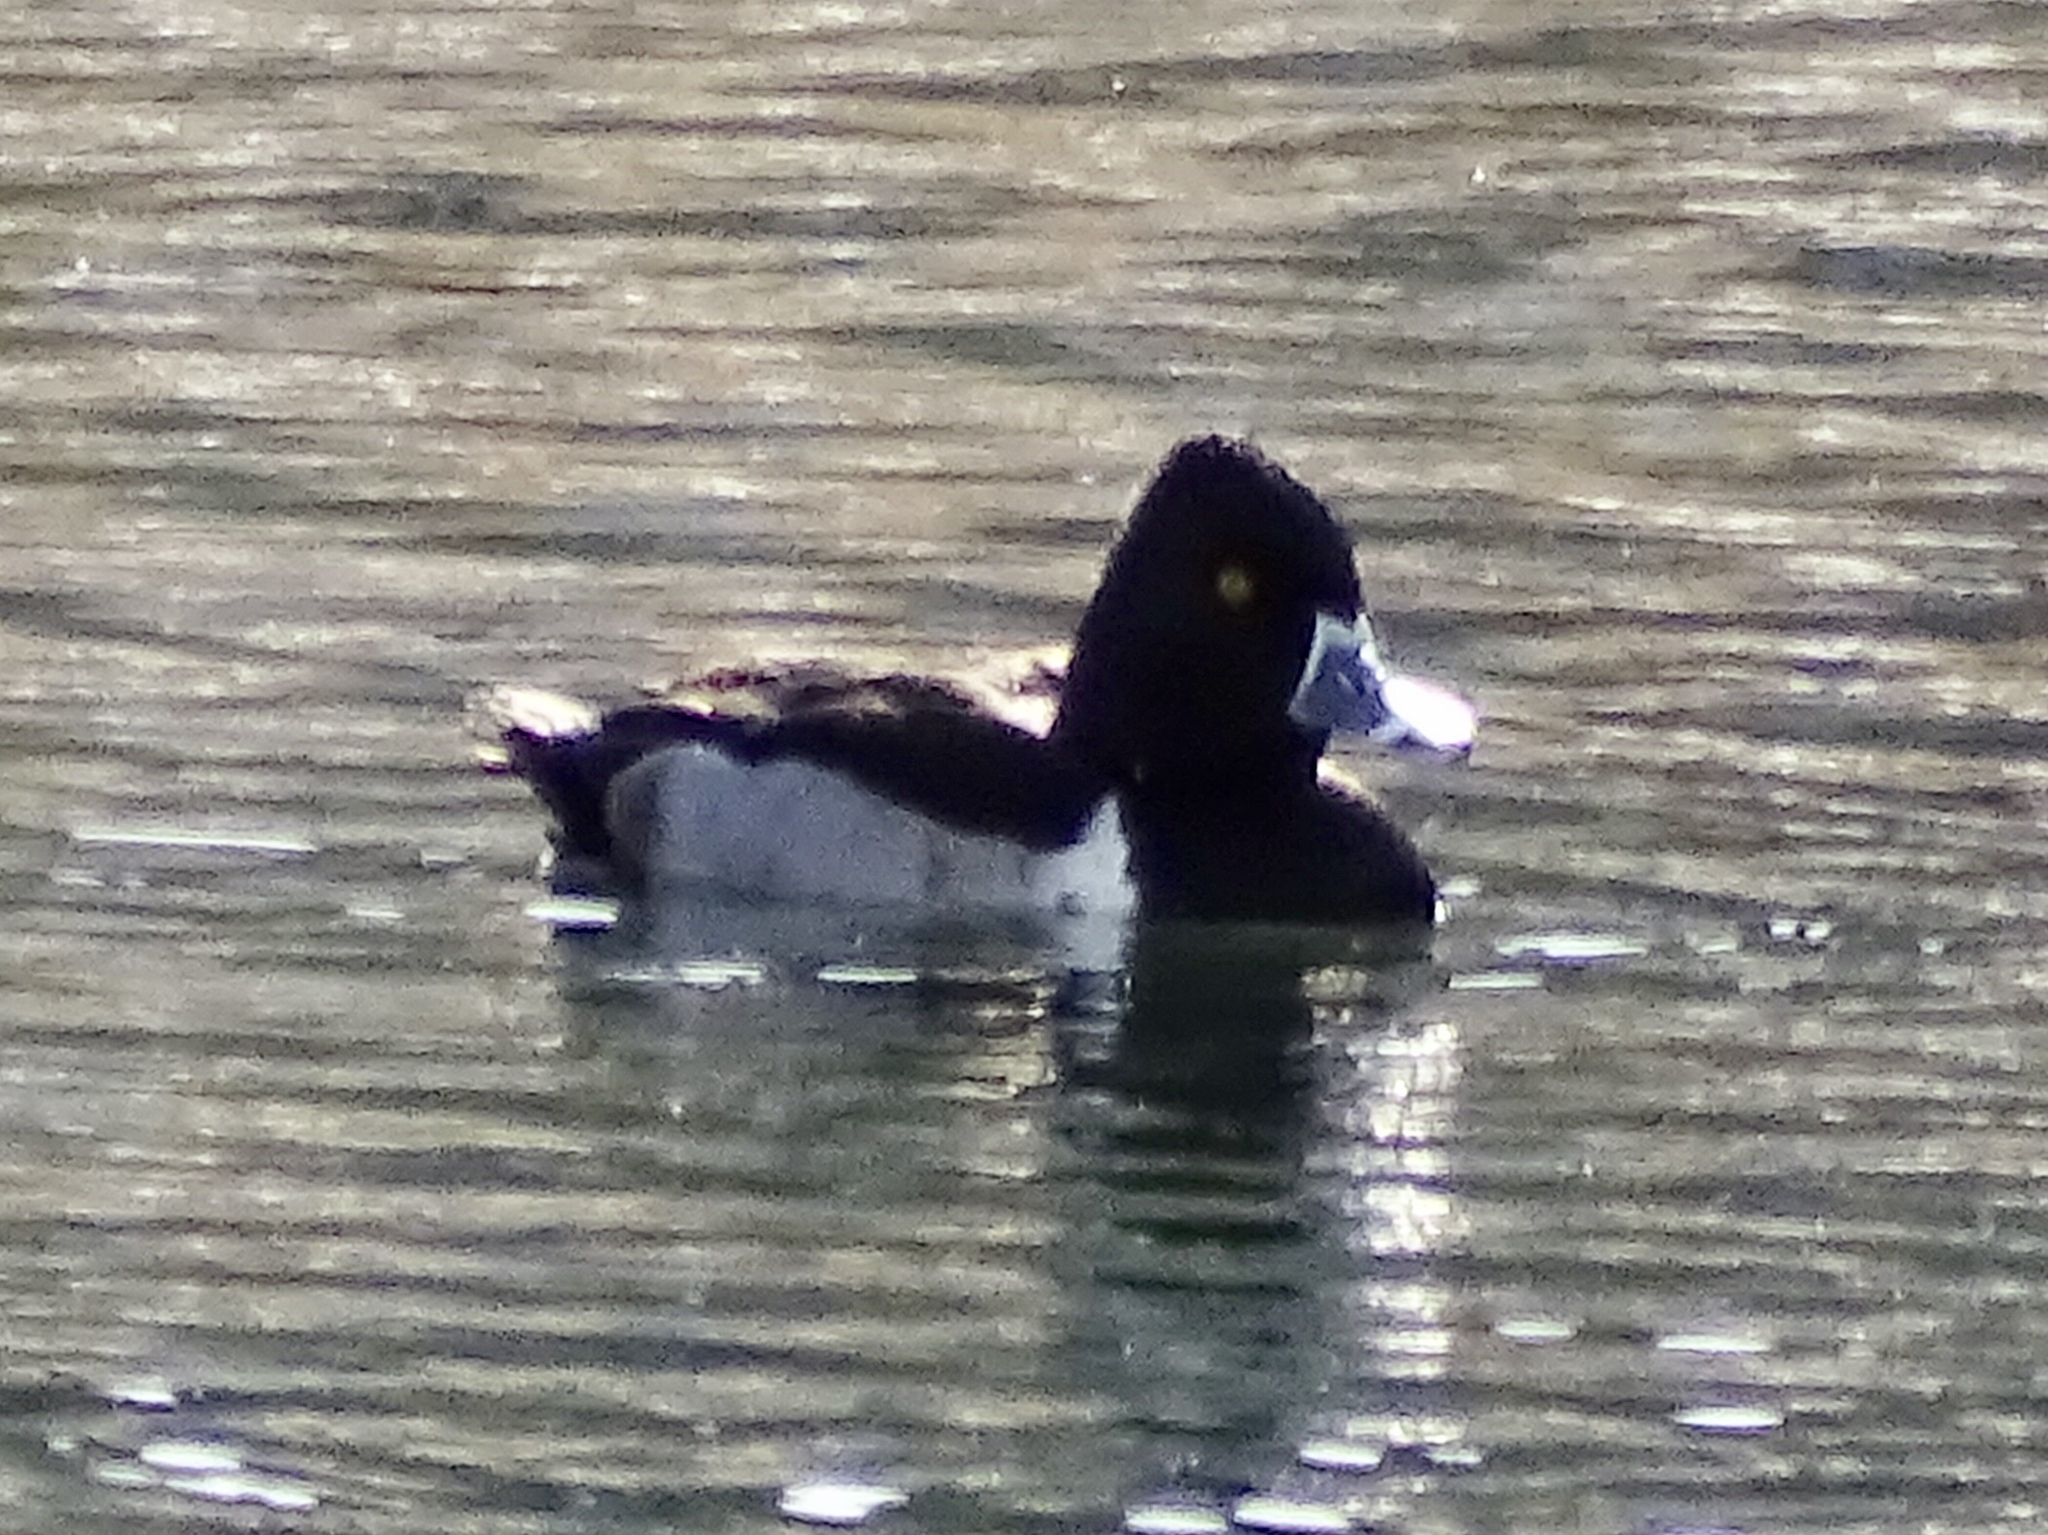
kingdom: Animalia
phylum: Chordata
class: Aves
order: Anseriformes
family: Anatidae
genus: Aythya
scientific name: Aythya collaris
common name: Ring-necked duck
